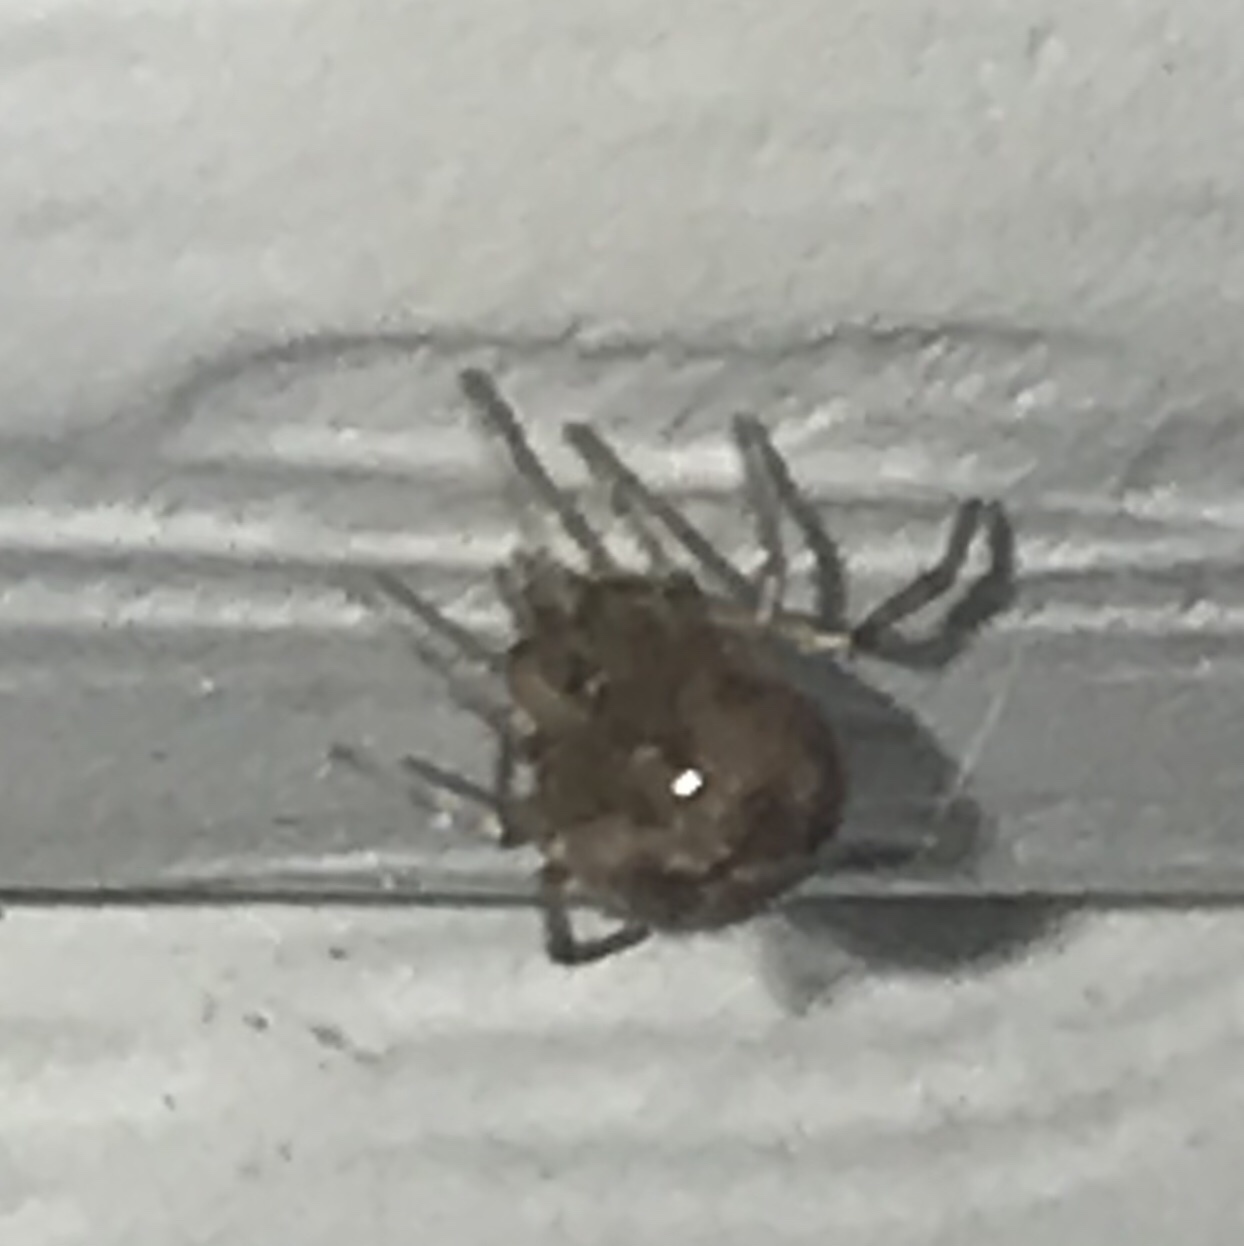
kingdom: Animalia
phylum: Arthropoda
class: Arachnida
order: Araneae
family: Theridiidae
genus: Steatoda
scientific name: Steatoda triangulosa
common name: Triangulate bud spider
